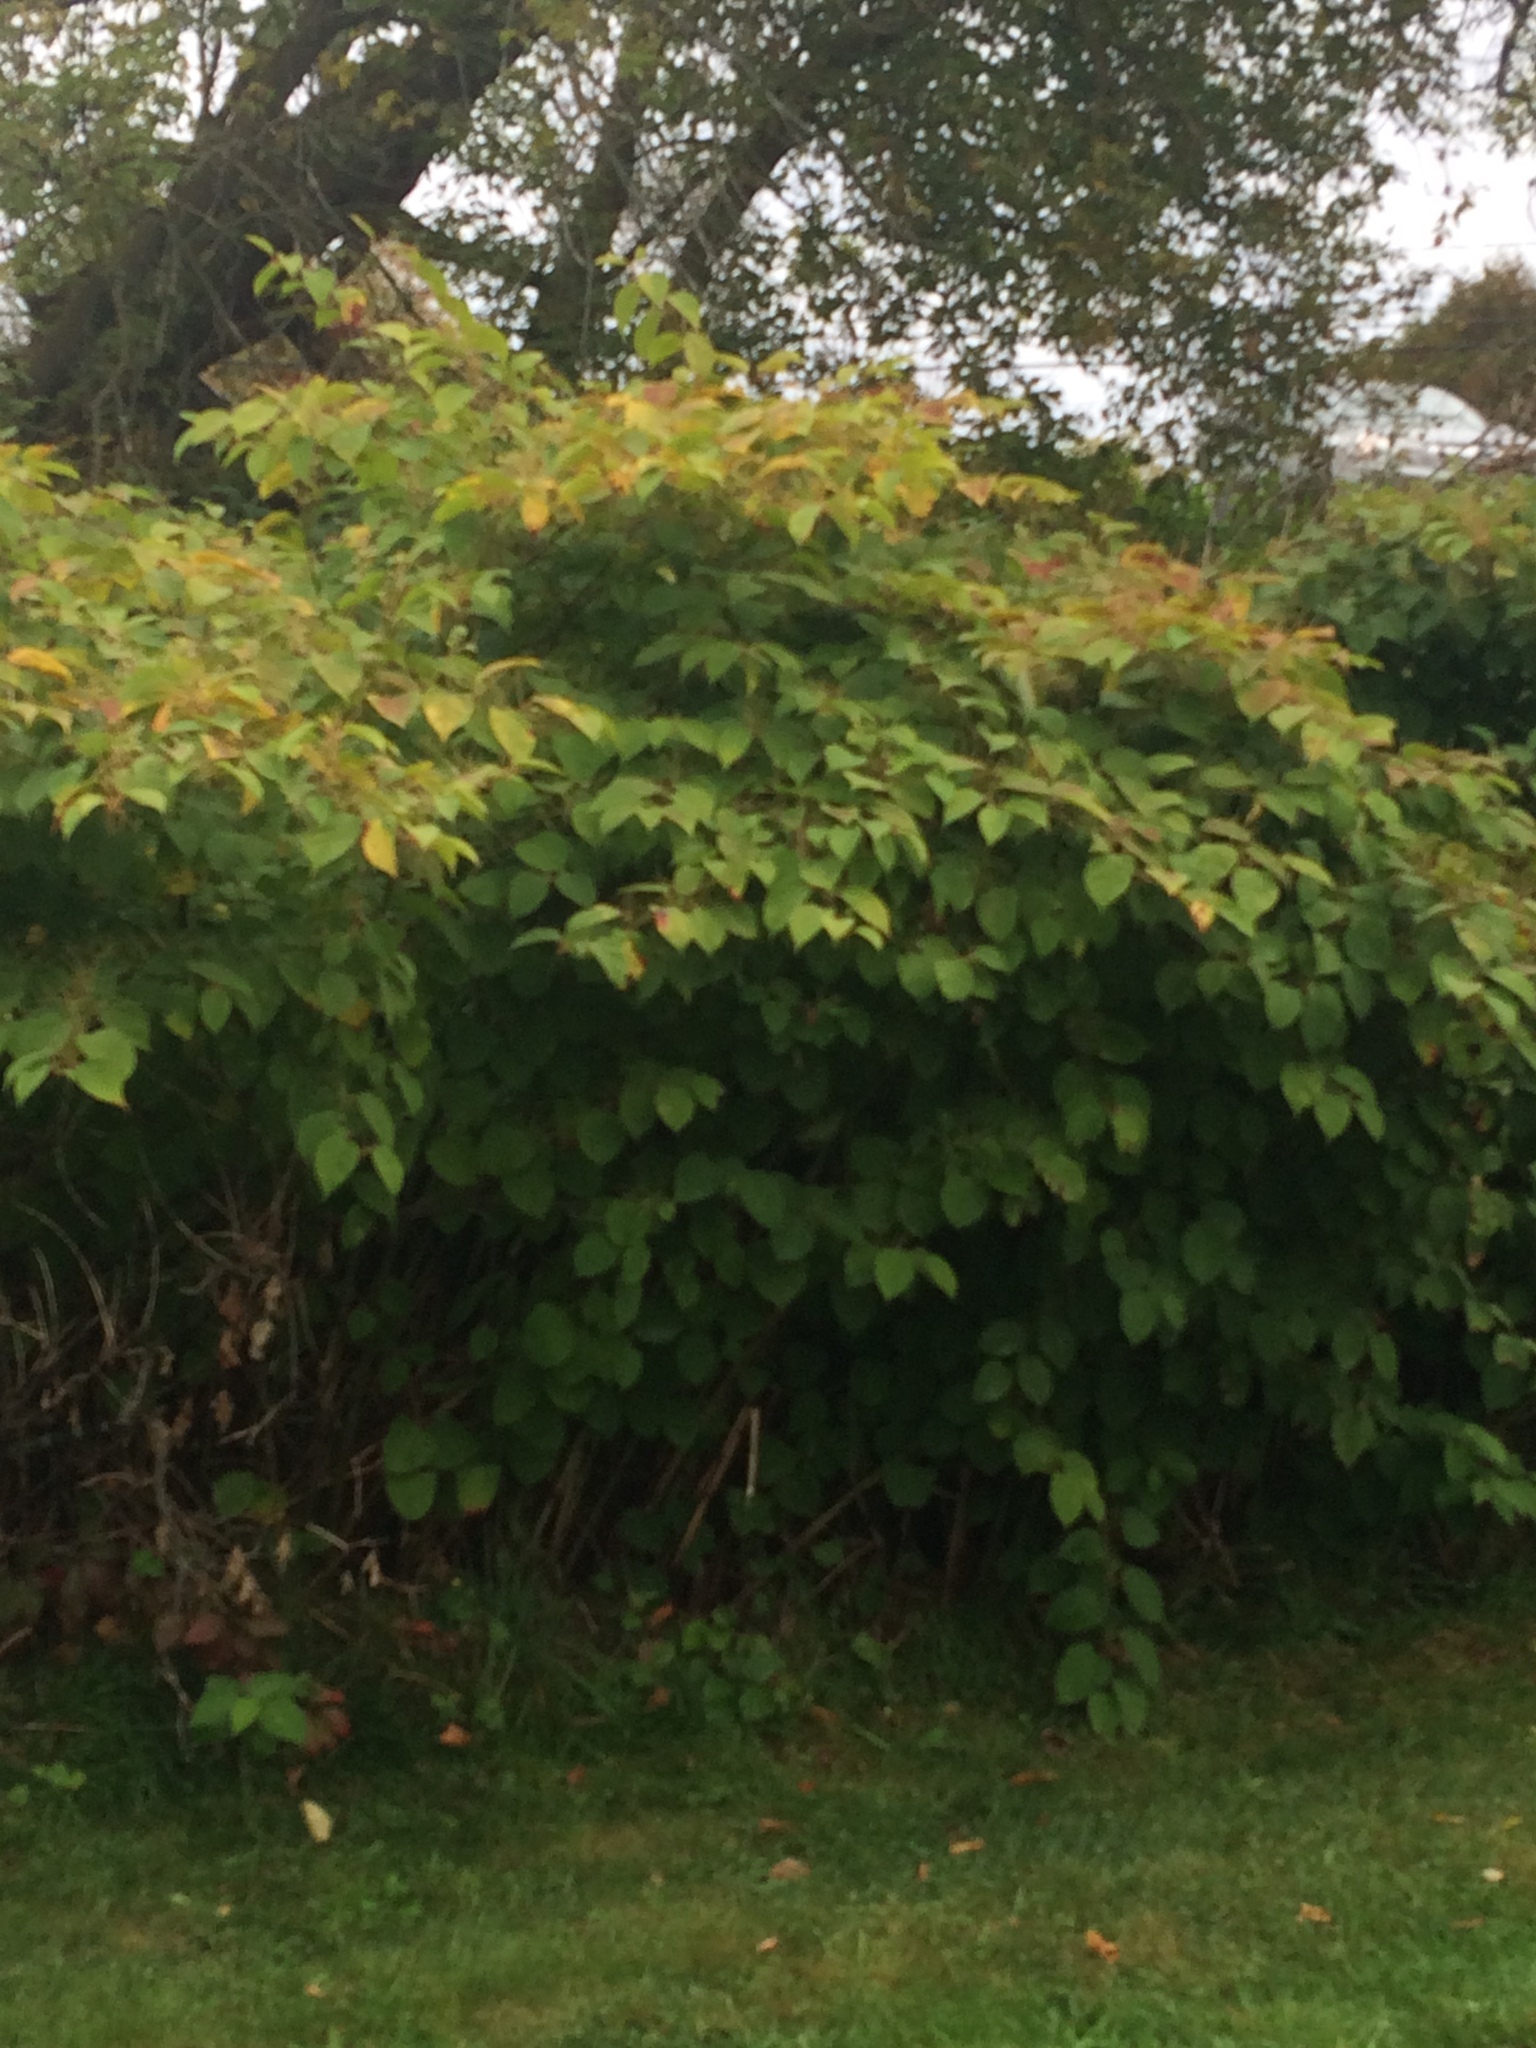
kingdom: Plantae
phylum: Tracheophyta
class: Magnoliopsida
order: Caryophyllales
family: Polygonaceae
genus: Reynoutria
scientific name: Reynoutria japonica
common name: Japanese knotweed
